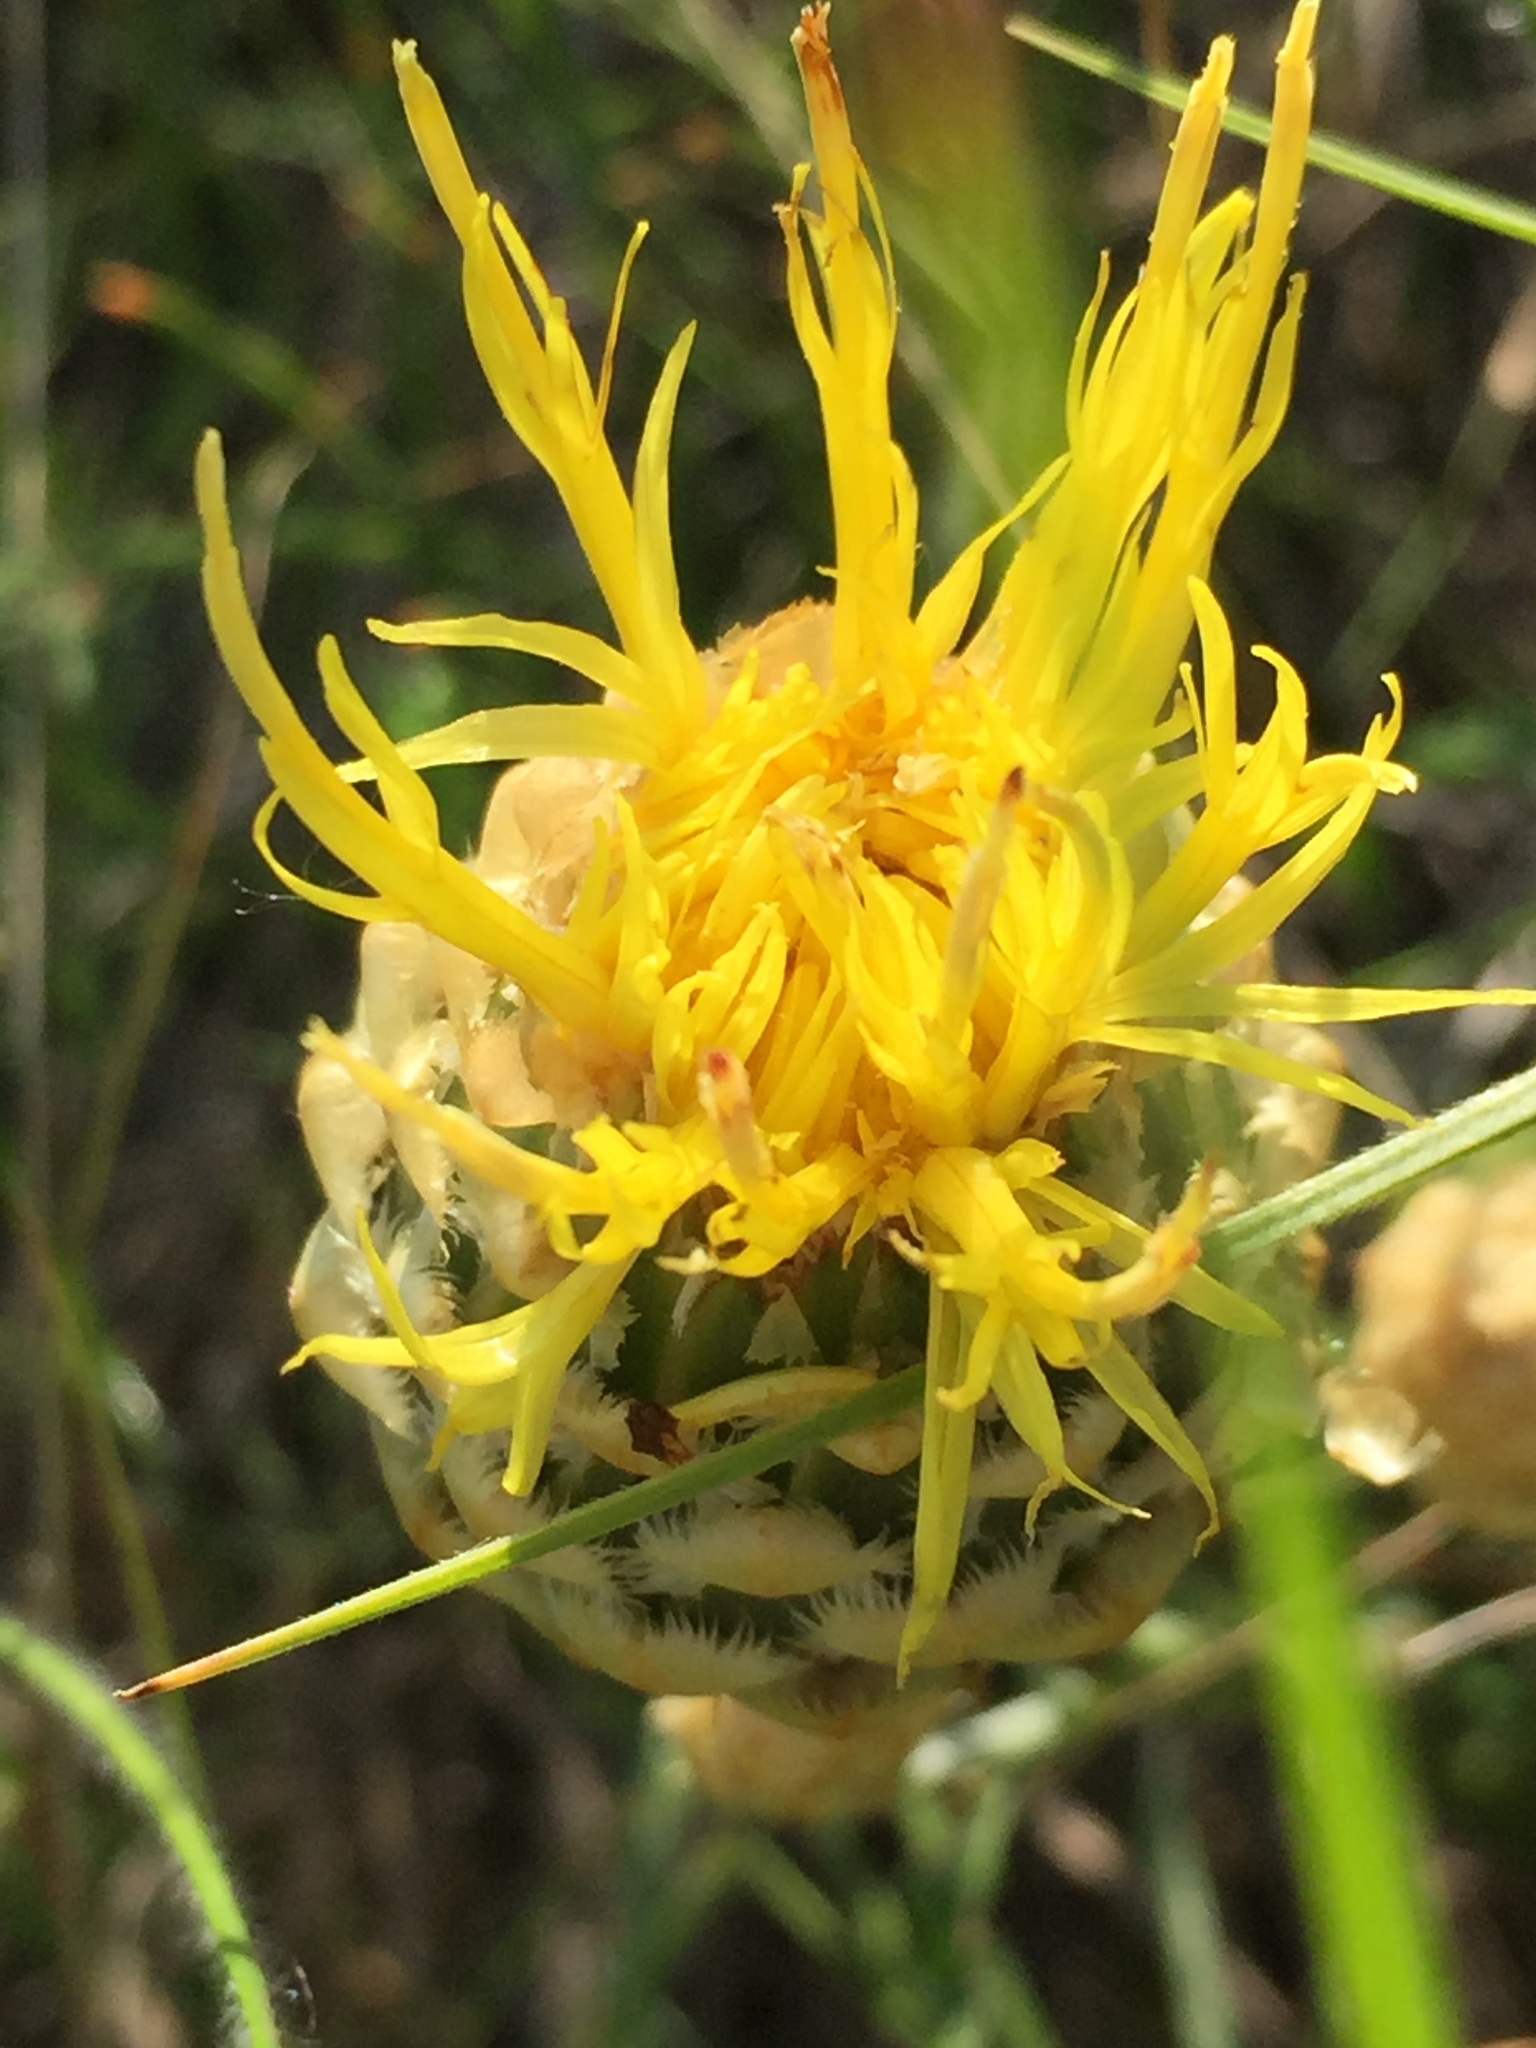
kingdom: Plantae
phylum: Tracheophyta
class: Magnoliopsida
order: Asterales
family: Asteraceae
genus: Centaurea
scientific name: Centaurea orientalis
